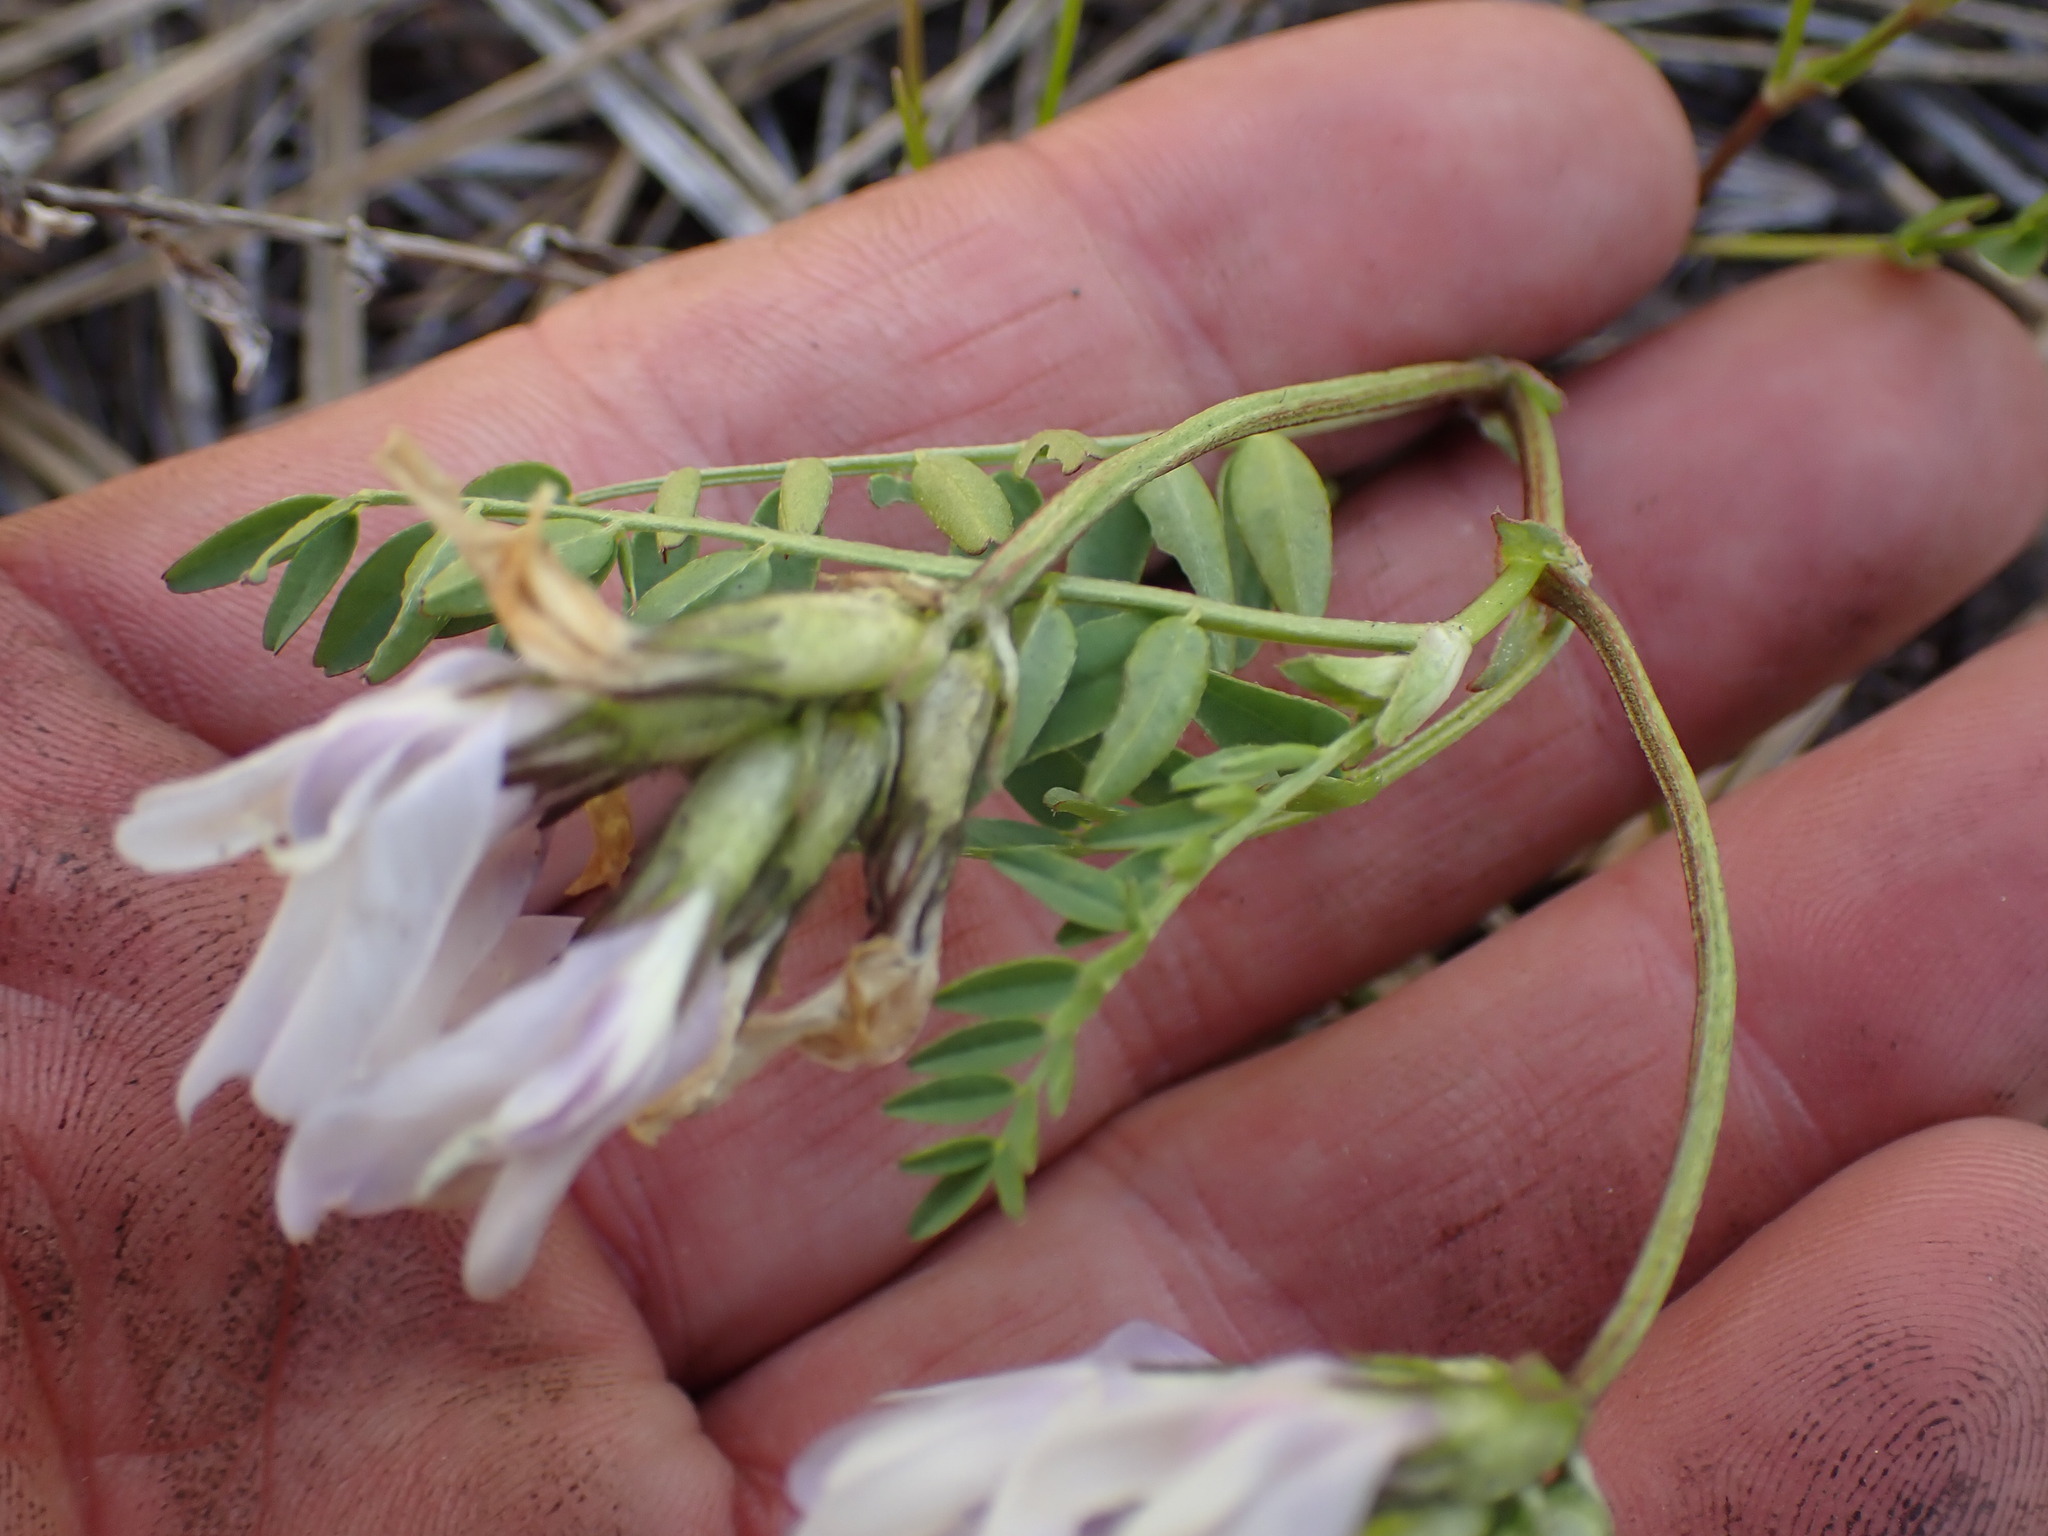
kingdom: Plantae
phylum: Tracheophyta
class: Magnoliopsida
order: Fabales
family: Fabaceae
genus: Astragalus
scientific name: Astragalus agrestis
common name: Field milk-vetch
